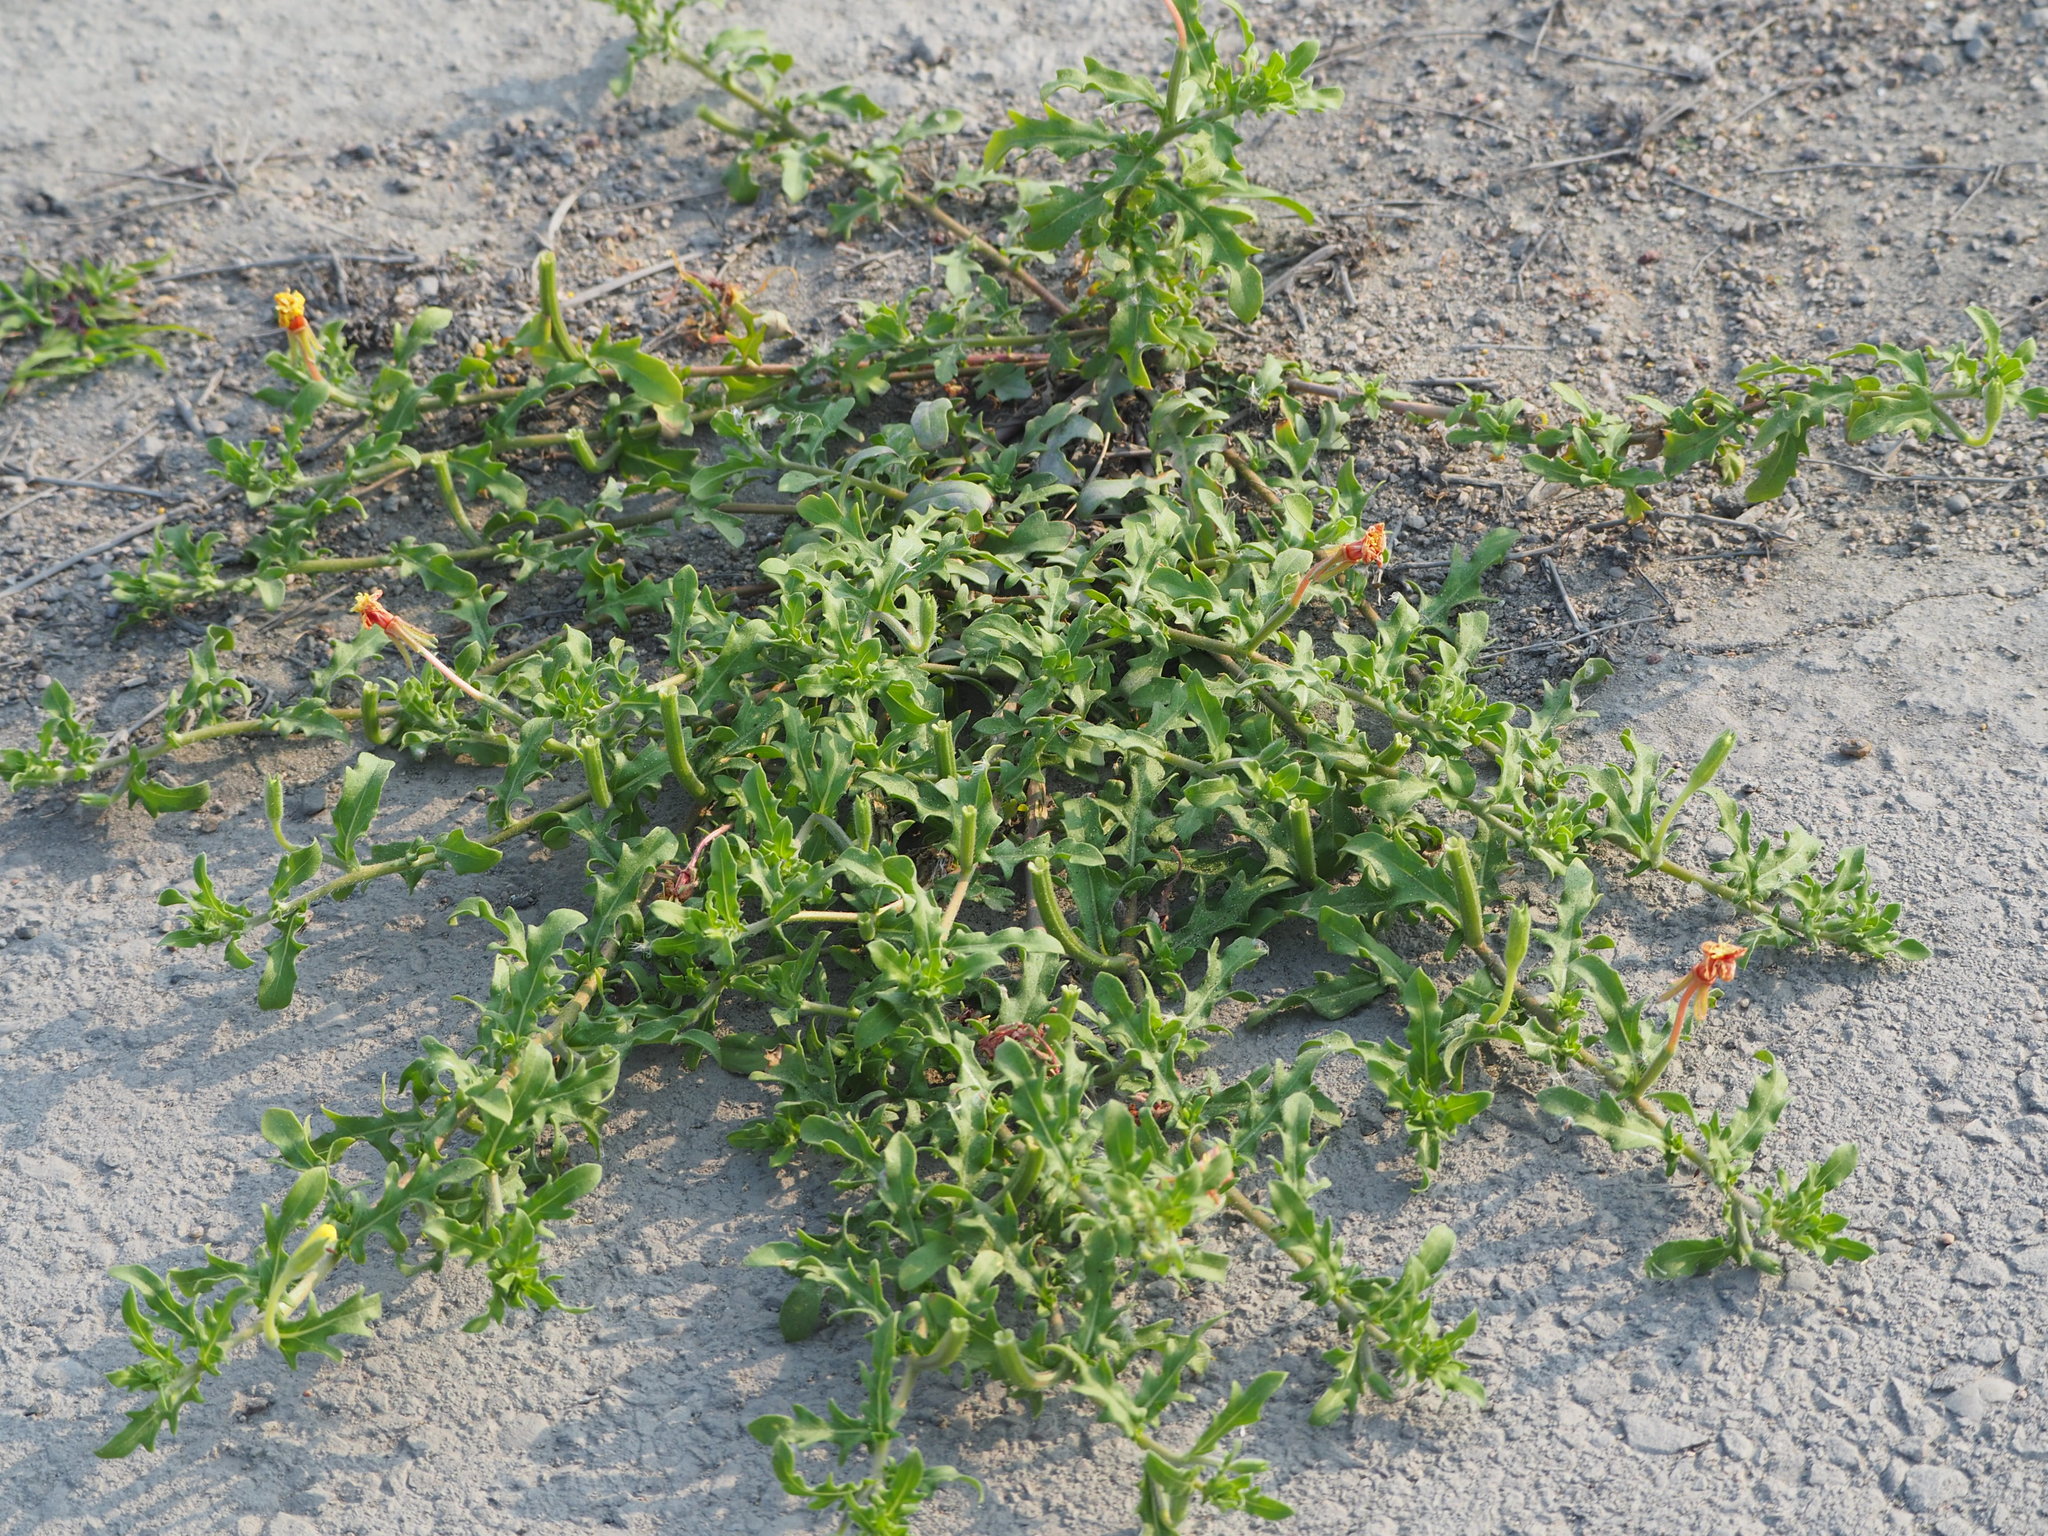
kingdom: Plantae
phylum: Tracheophyta
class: Magnoliopsida
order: Myrtales
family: Onagraceae
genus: Oenothera
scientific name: Oenothera laciniata
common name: Cut-leaved evening-primrose
